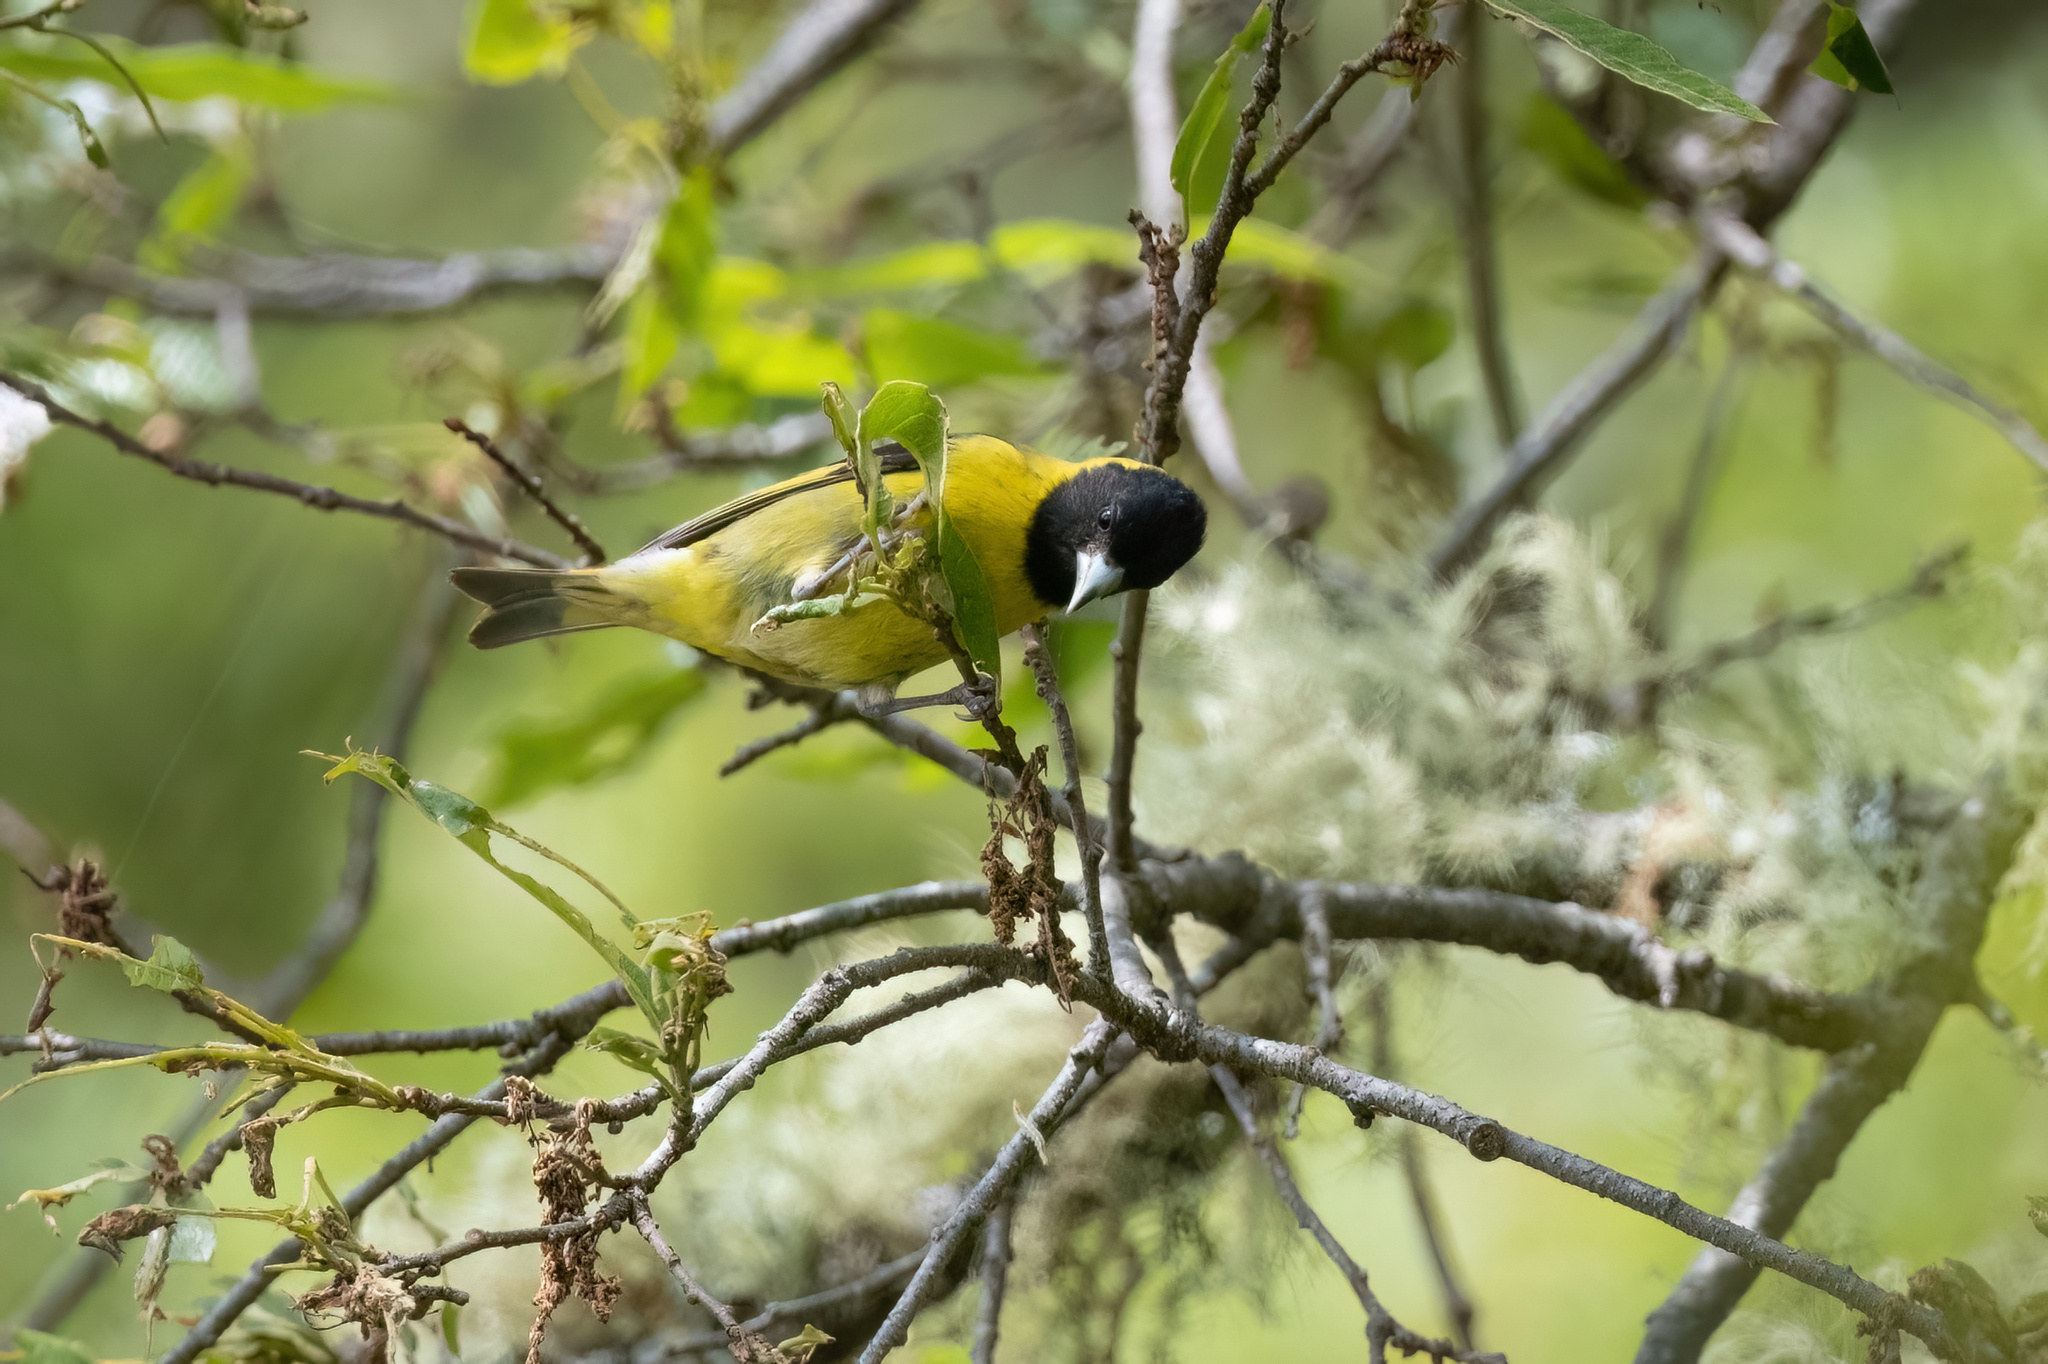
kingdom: Animalia
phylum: Chordata
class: Aves
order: Passeriformes
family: Fringillidae
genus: Spinus
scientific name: Spinus notatus
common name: Black-headed siskin
